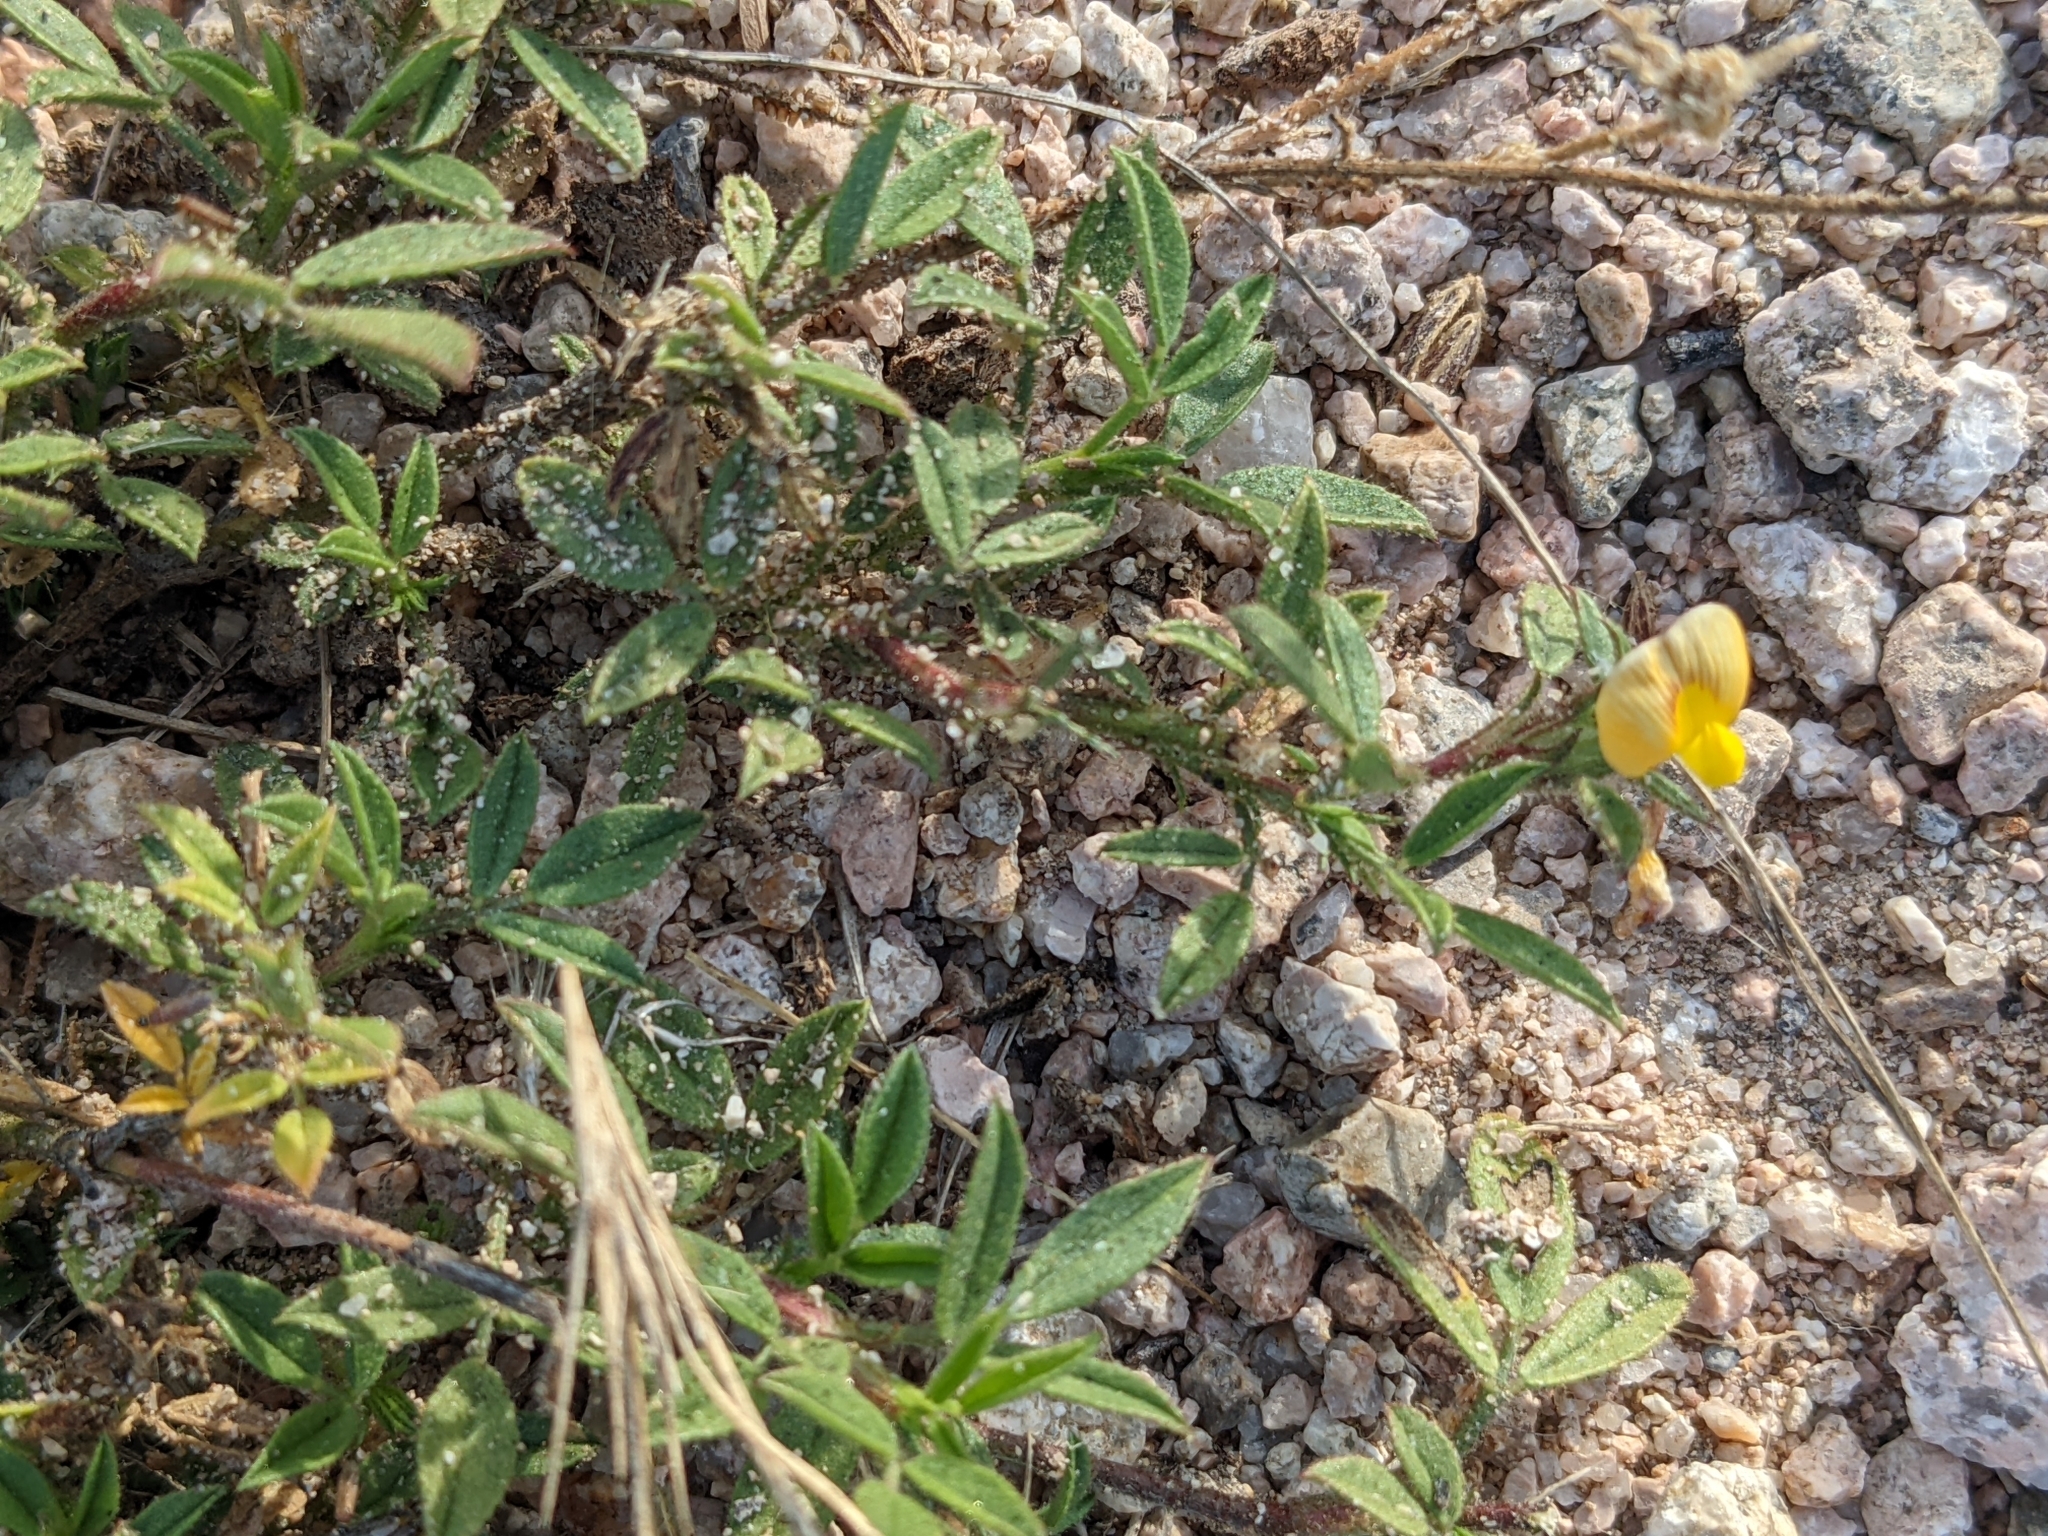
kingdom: Plantae
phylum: Tracheophyta
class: Magnoliopsida
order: Fabales
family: Fabaceae
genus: Stylosanthes
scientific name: Stylosanthes viscosa
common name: Viscid pencil-flower
